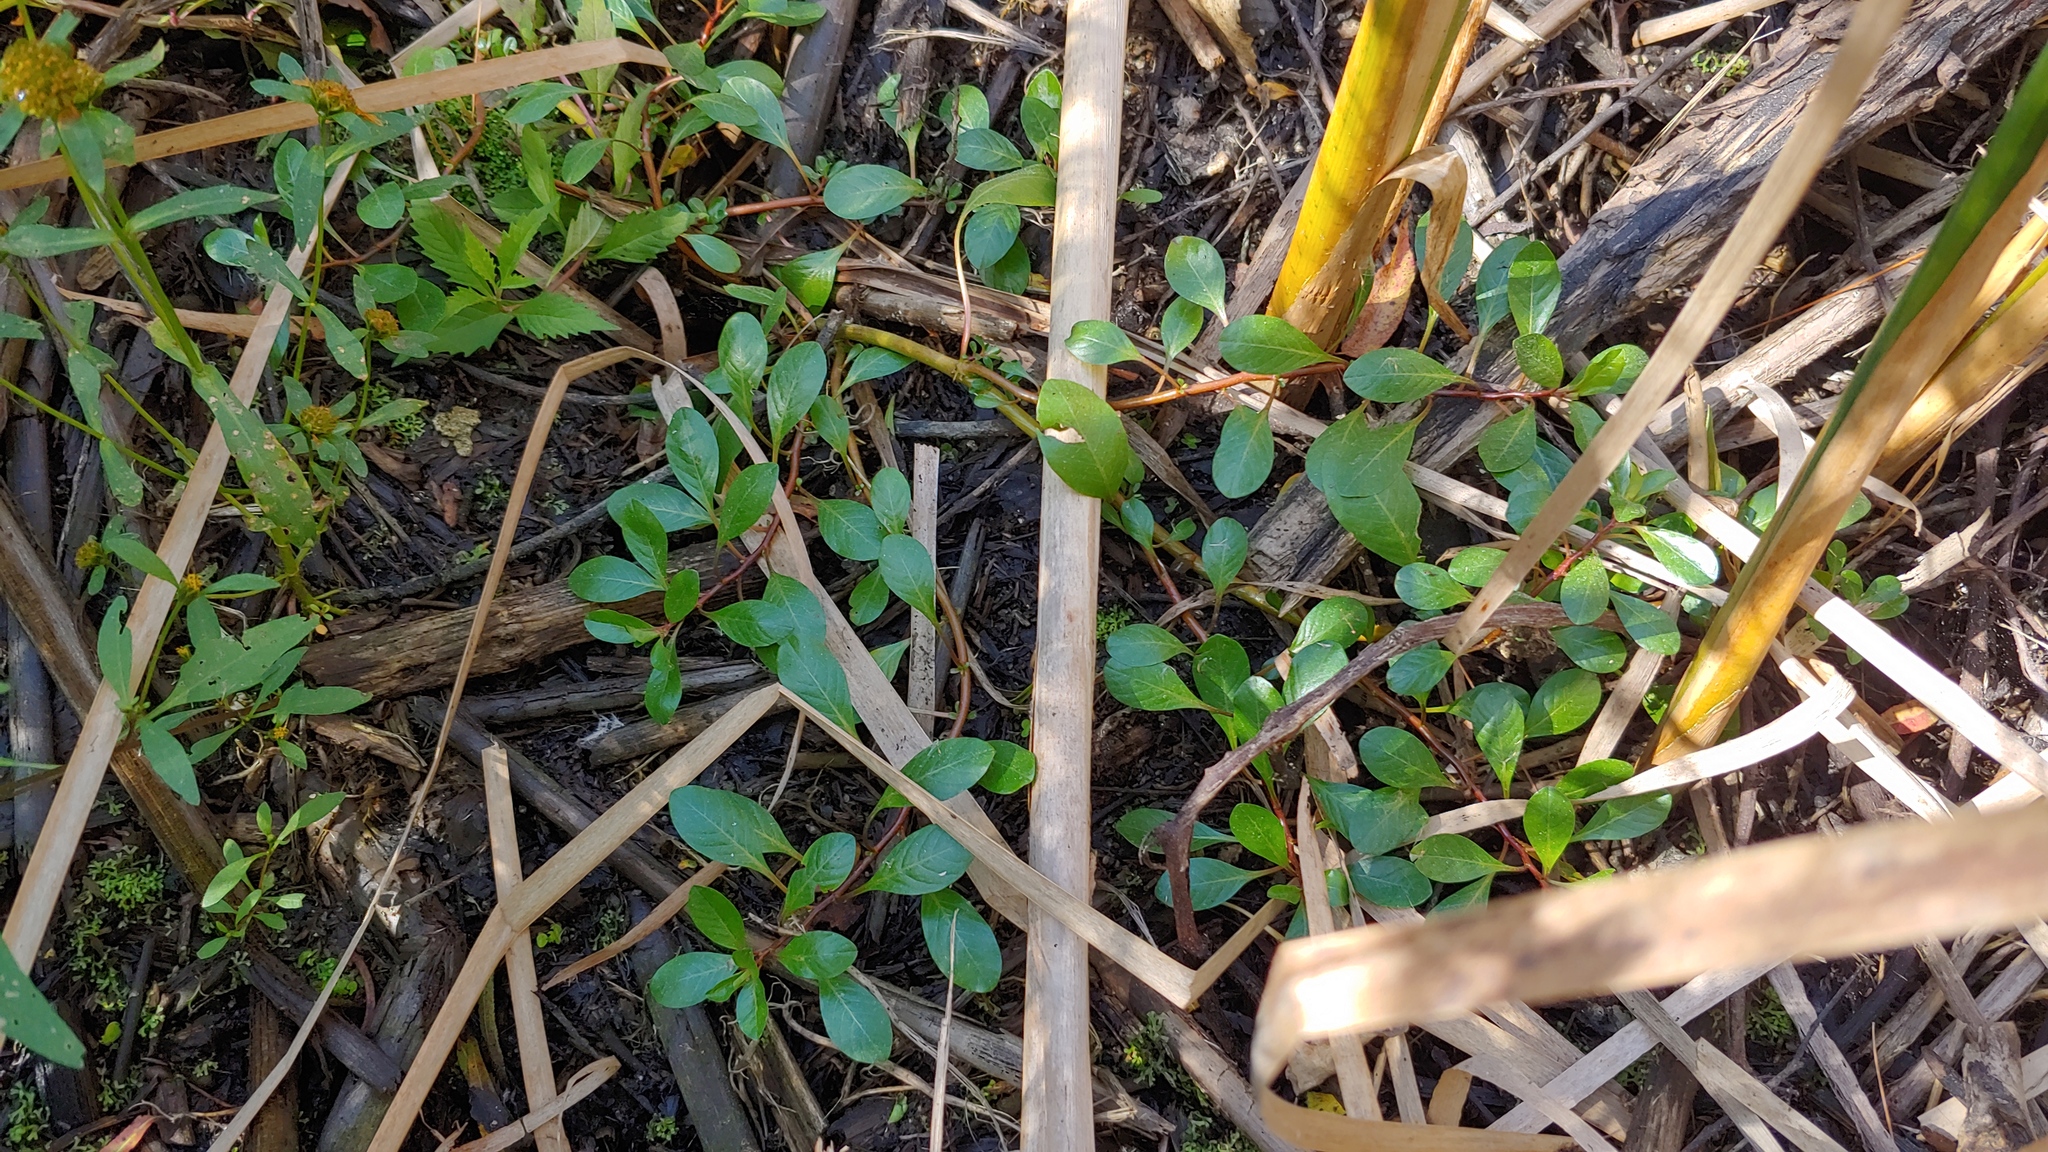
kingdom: Plantae
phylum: Tracheophyta
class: Magnoliopsida
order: Myrtales
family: Onagraceae
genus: Ludwigia
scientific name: Ludwigia peploides
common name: Floating primrose-willow
